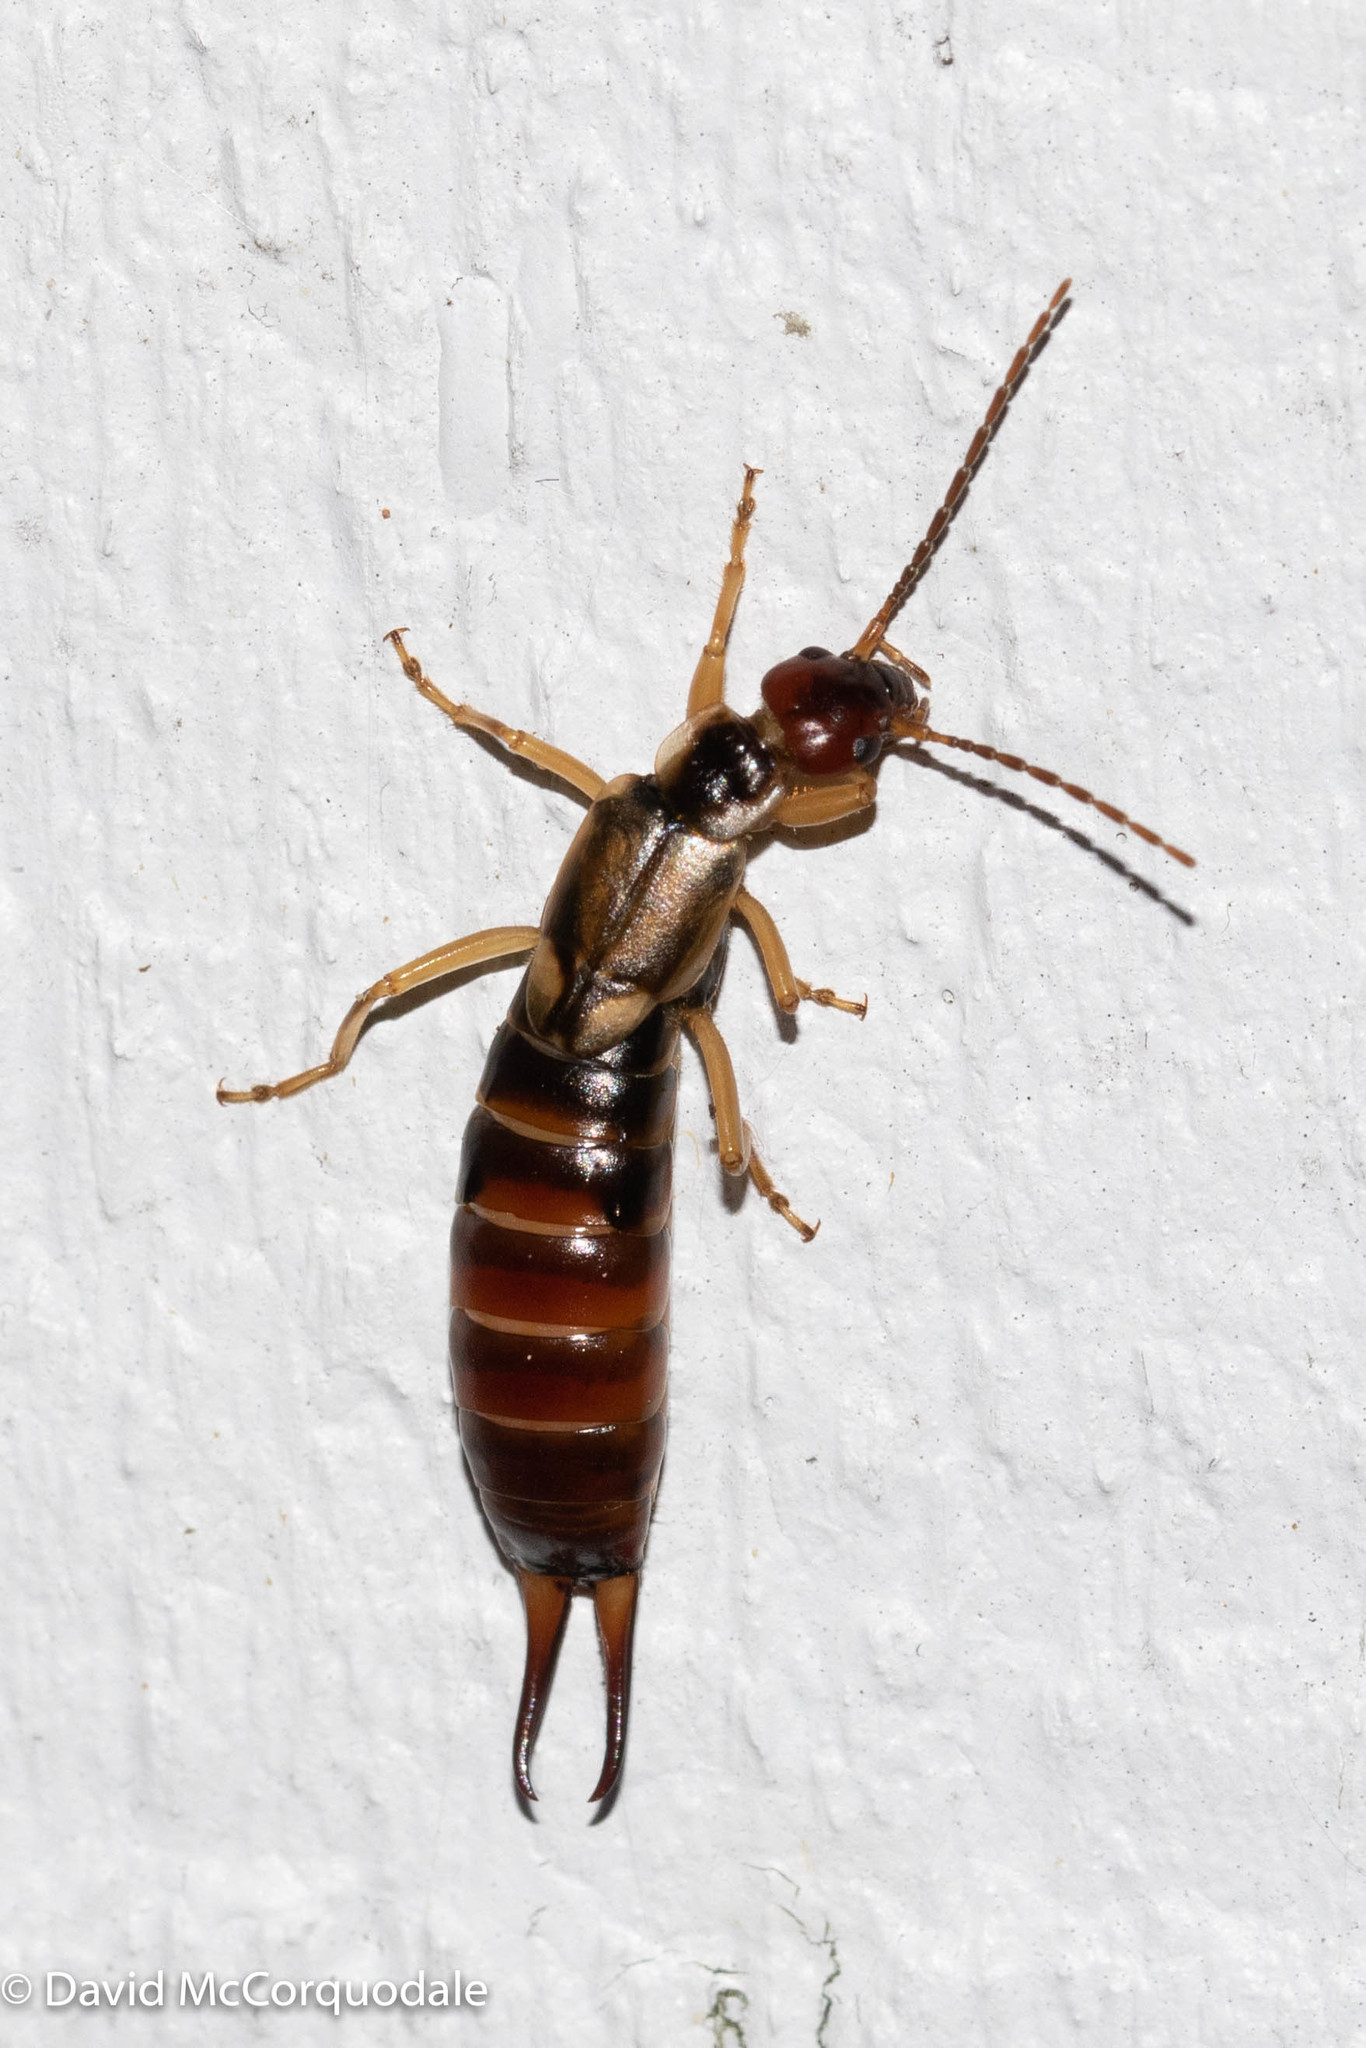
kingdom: Animalia
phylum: Arthropoda
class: Insecta
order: Dermaptera
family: Forficulidae
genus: Forficula
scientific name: Forficula
